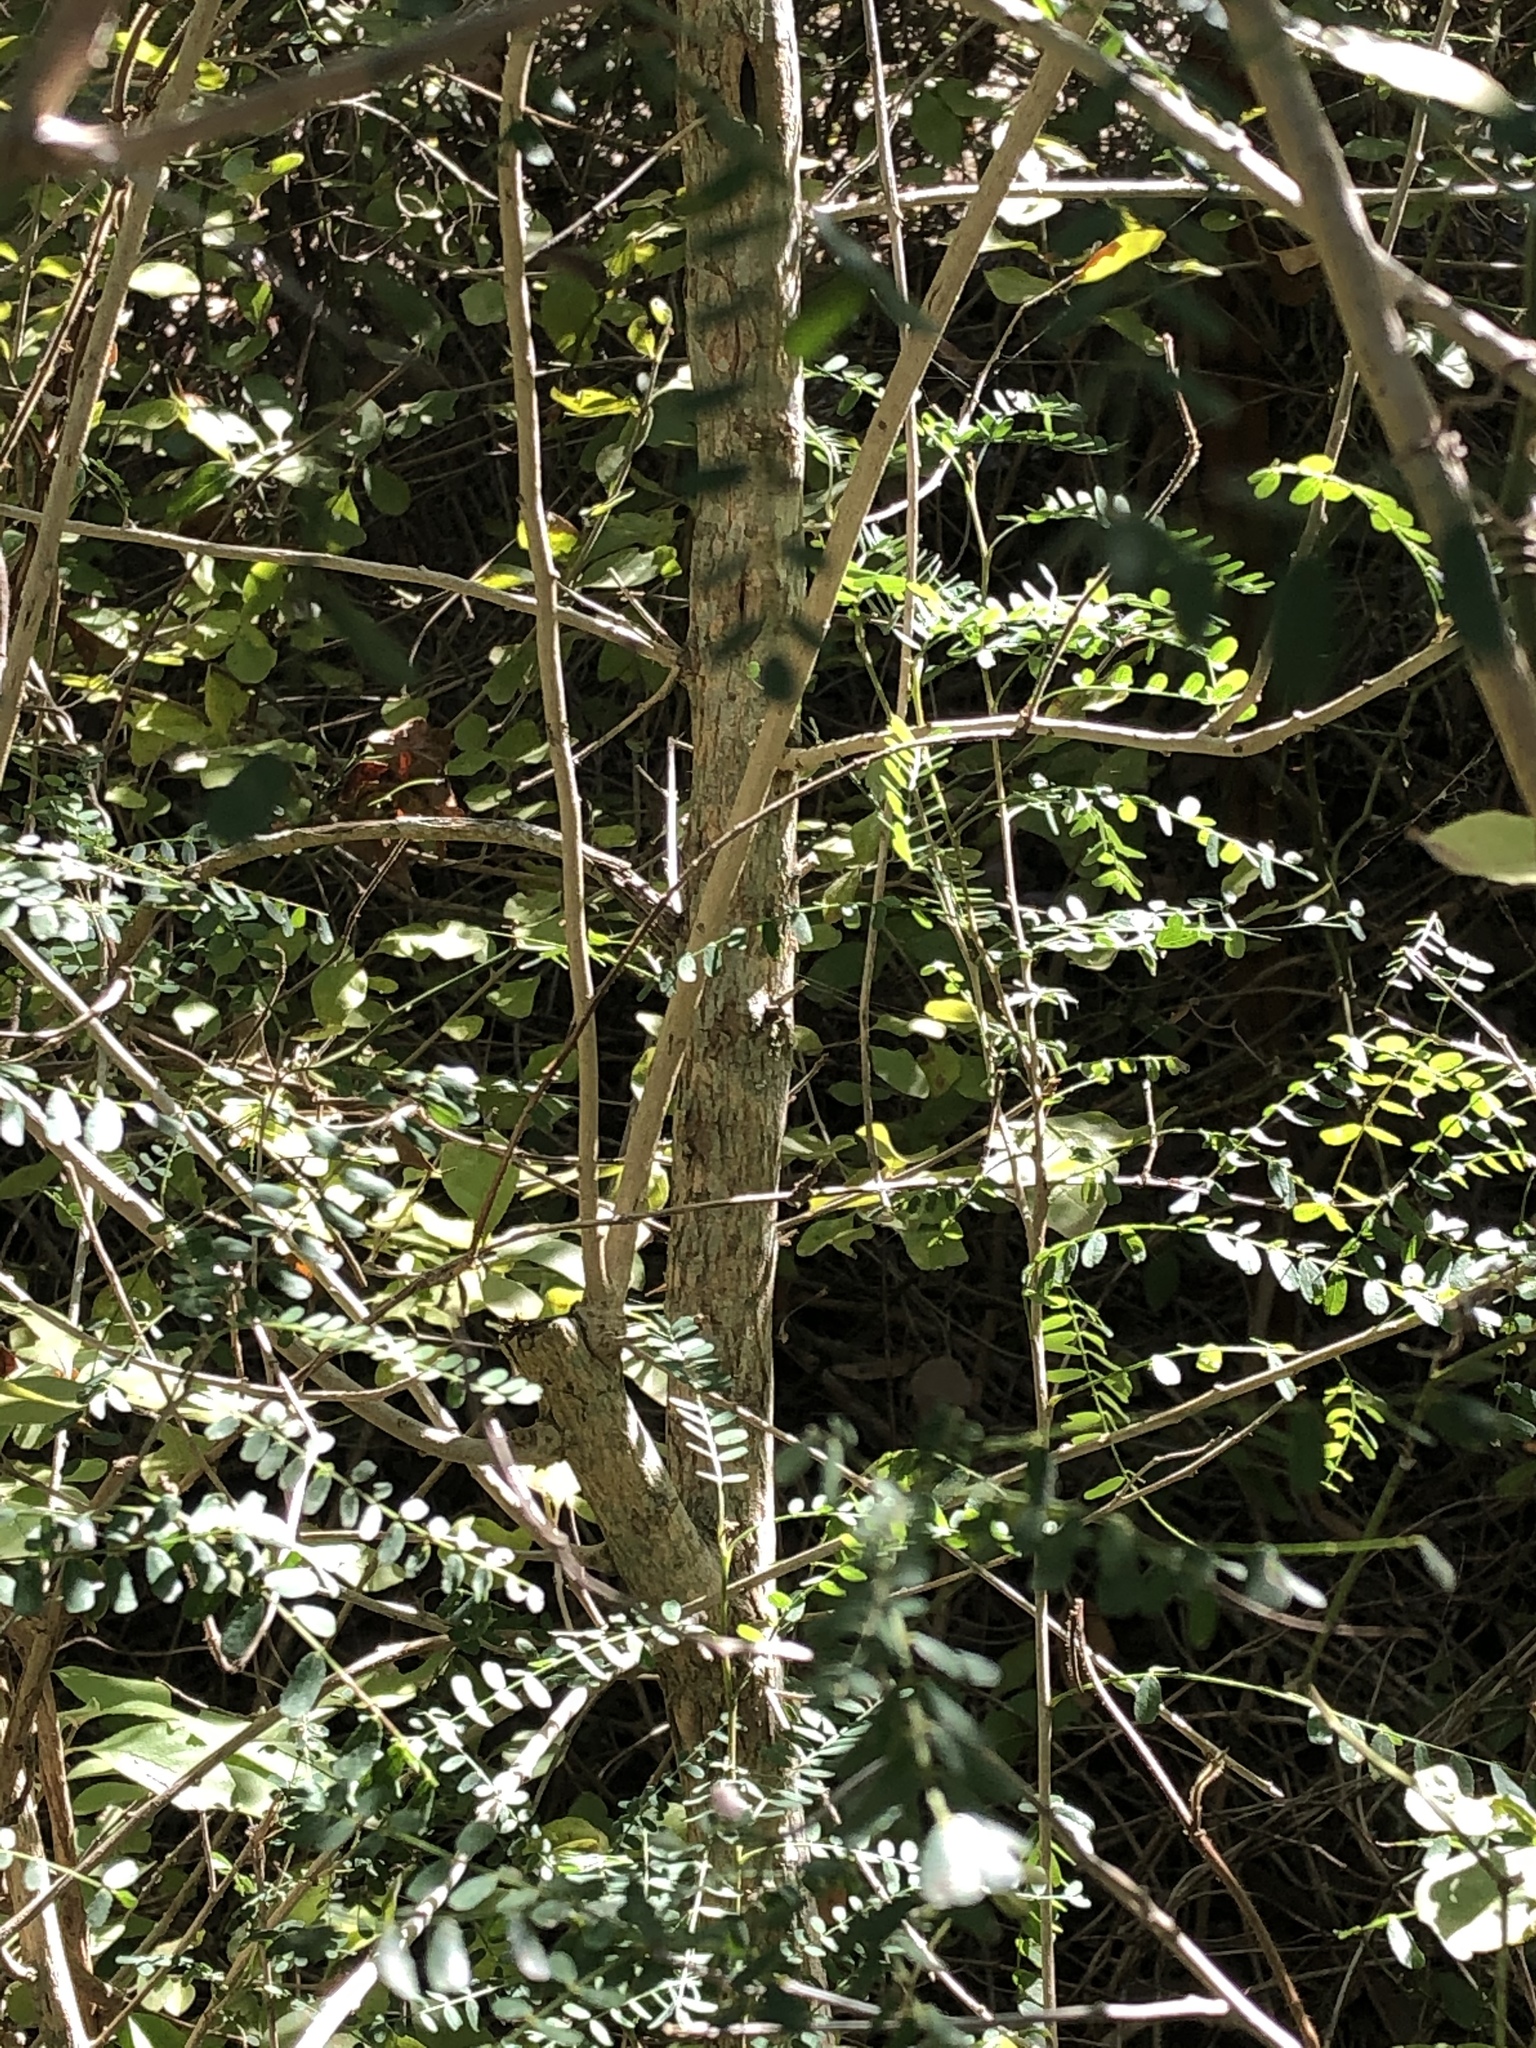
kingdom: Plantae
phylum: Tracheophyta
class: Magnoliopsida
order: Fabales
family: Fabaceae
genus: Eysenhardtia
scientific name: Eysenhardtia texana
